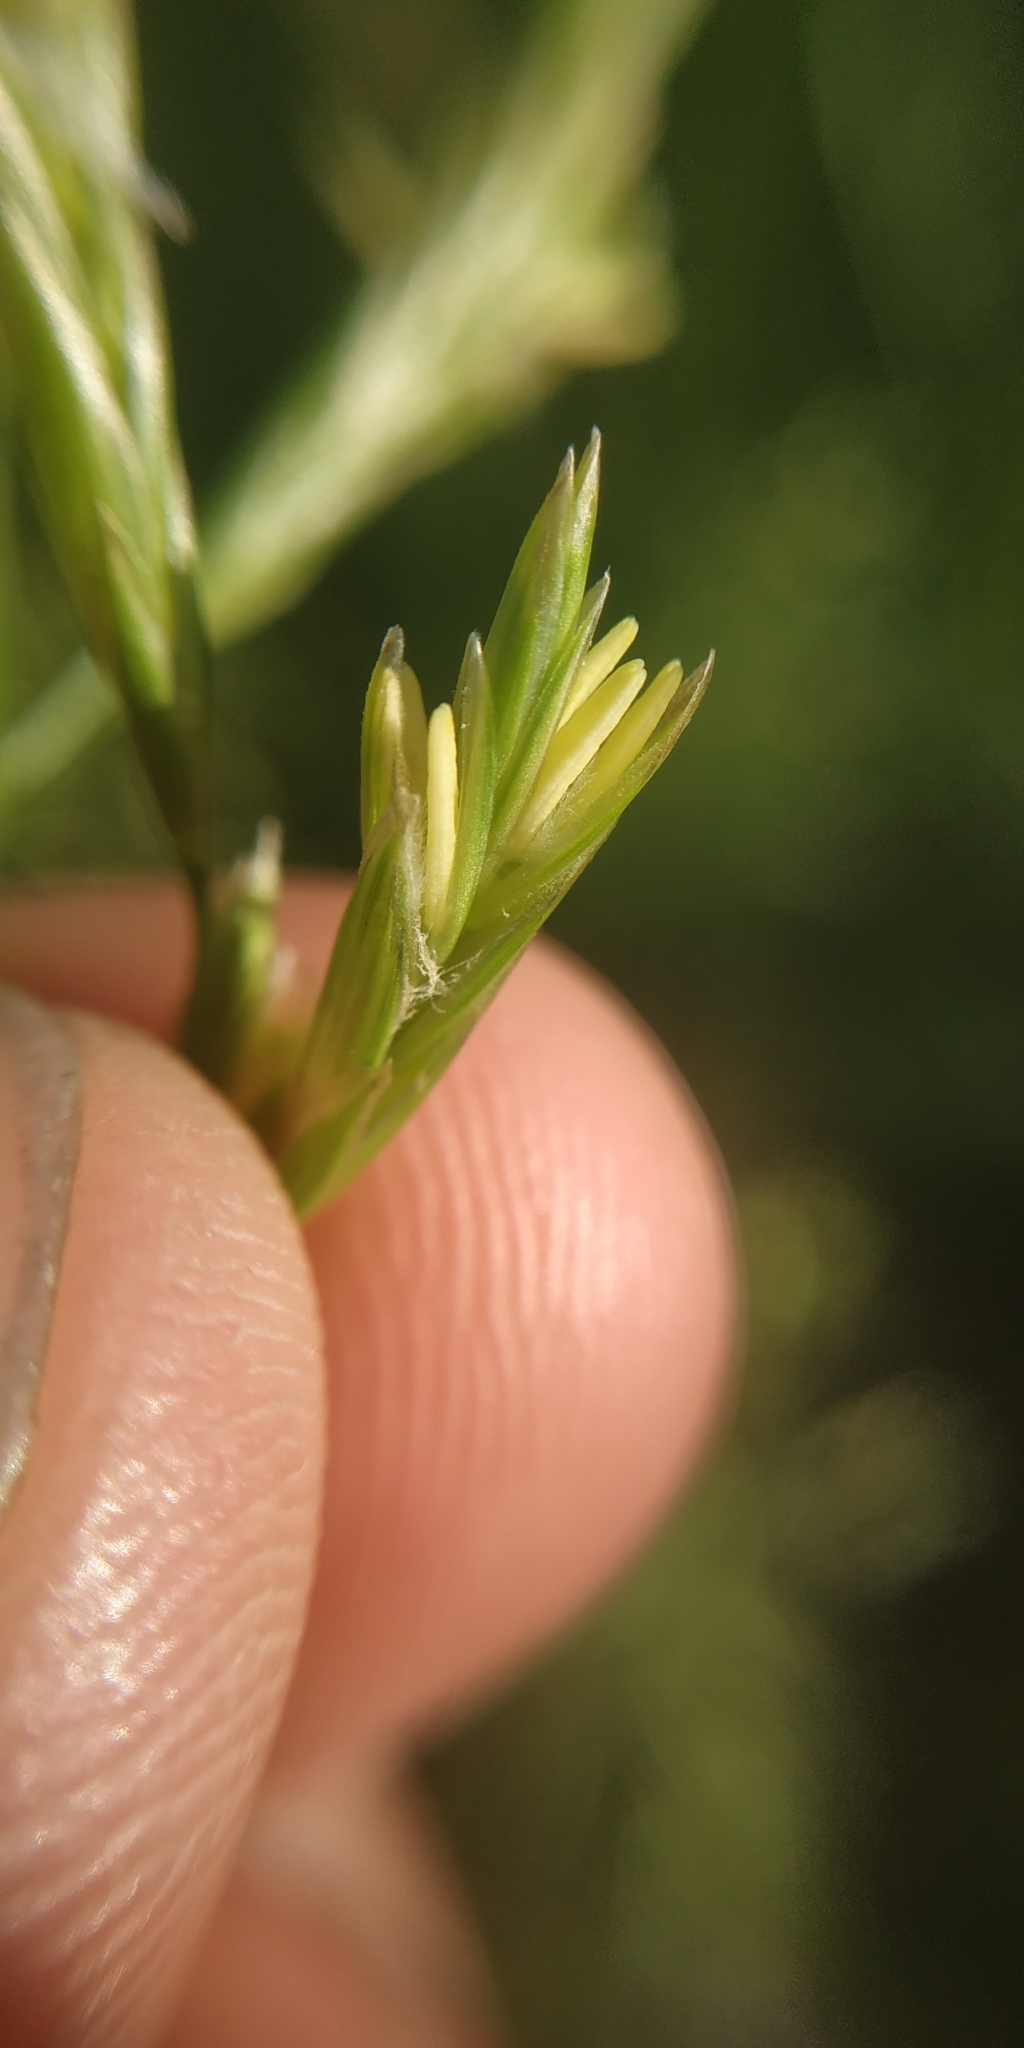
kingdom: Plantae
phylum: Tracheophyta
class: Liliopsida
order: Poales
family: Poaceae
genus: Lolium
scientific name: Lolium pratense
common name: Dover grass
